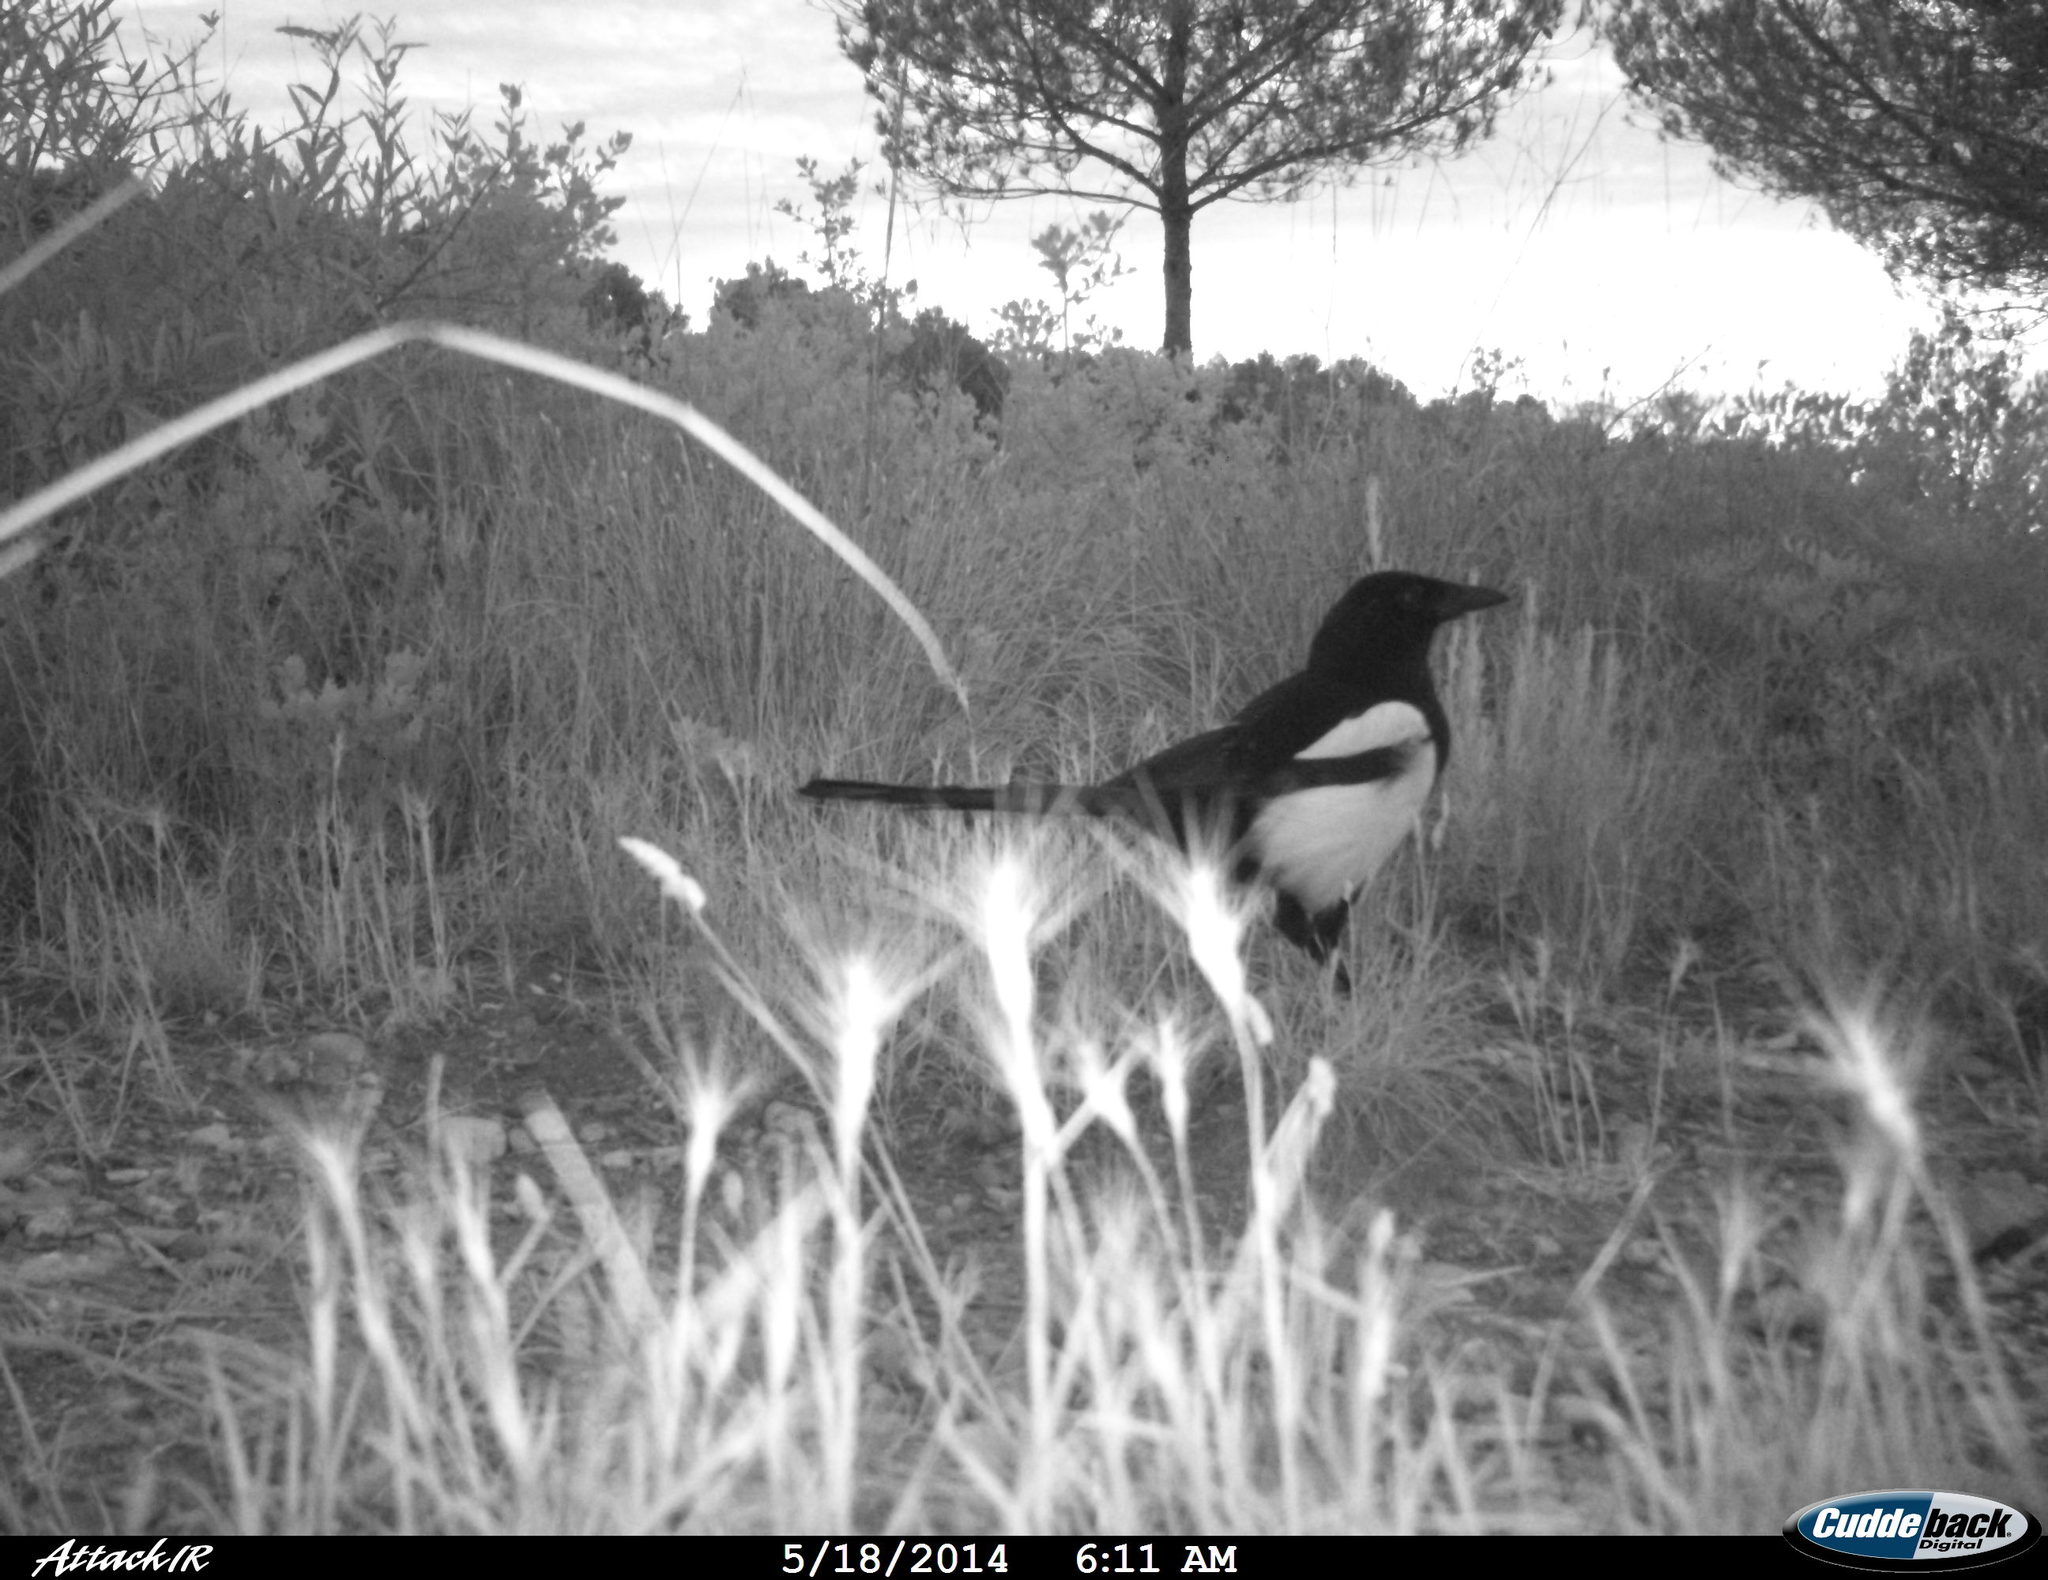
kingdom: Animalia
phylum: Chordata
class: Aves
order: Passeriformes
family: Corvidae
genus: Pica
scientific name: Pica pica
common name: Eurasian magpie
